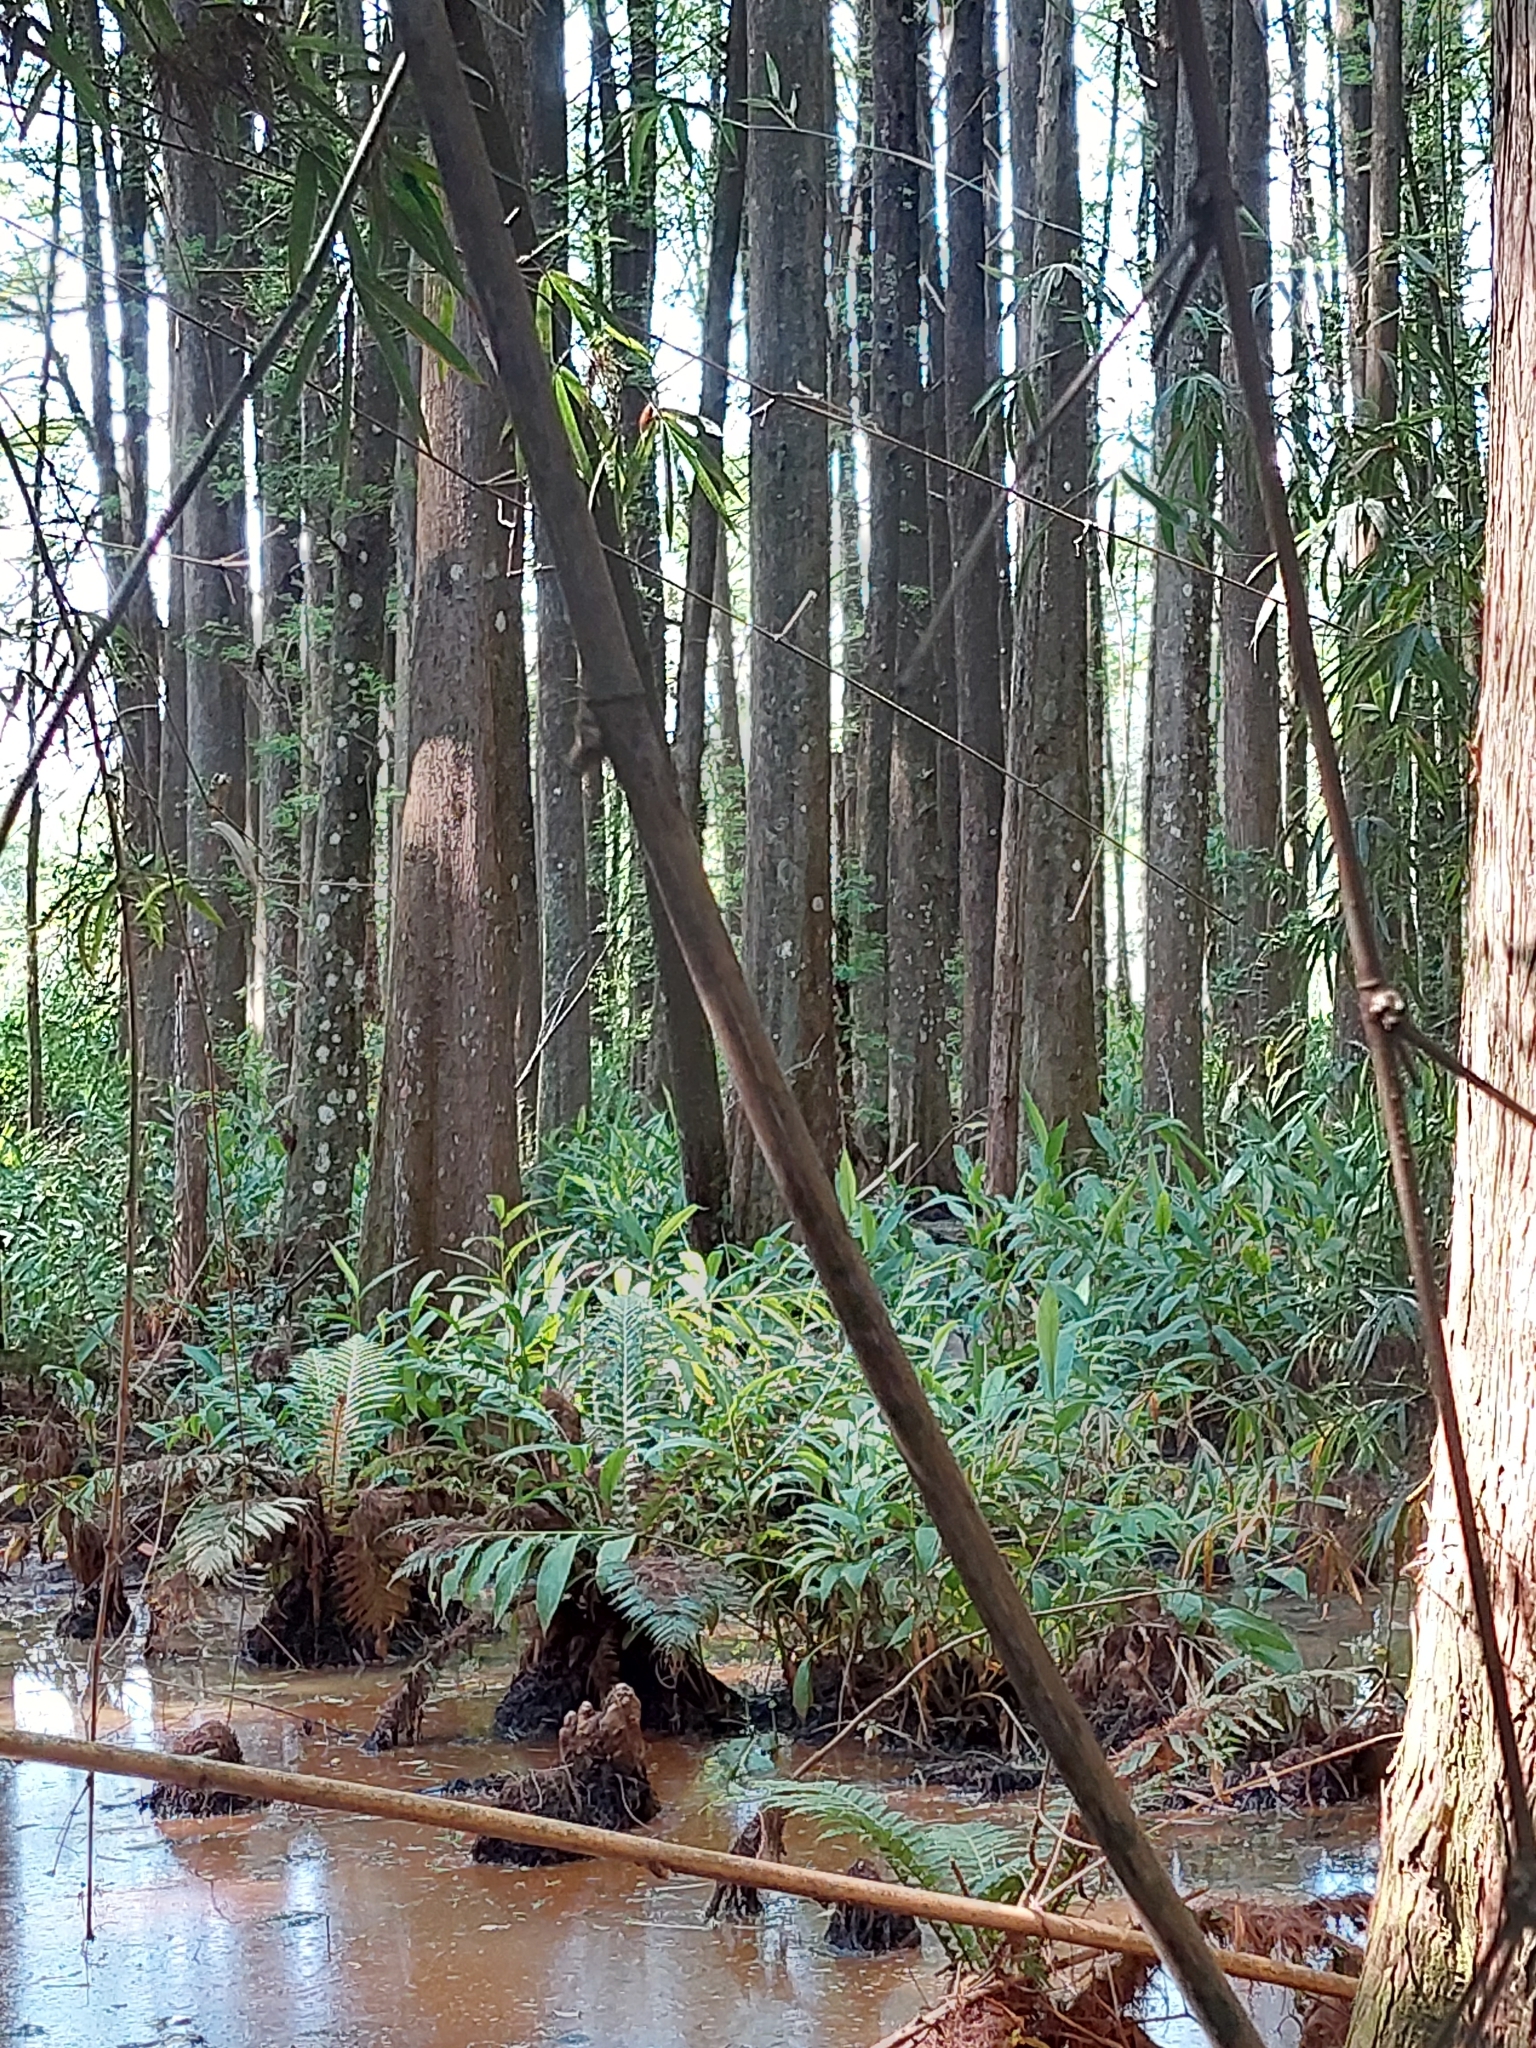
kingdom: Plantae
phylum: Tracheophyta
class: Liliopsida
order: Zingiberales
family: Zingiberaceae
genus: Hedychium
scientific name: Hedychium coronarium
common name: White garland-lily
